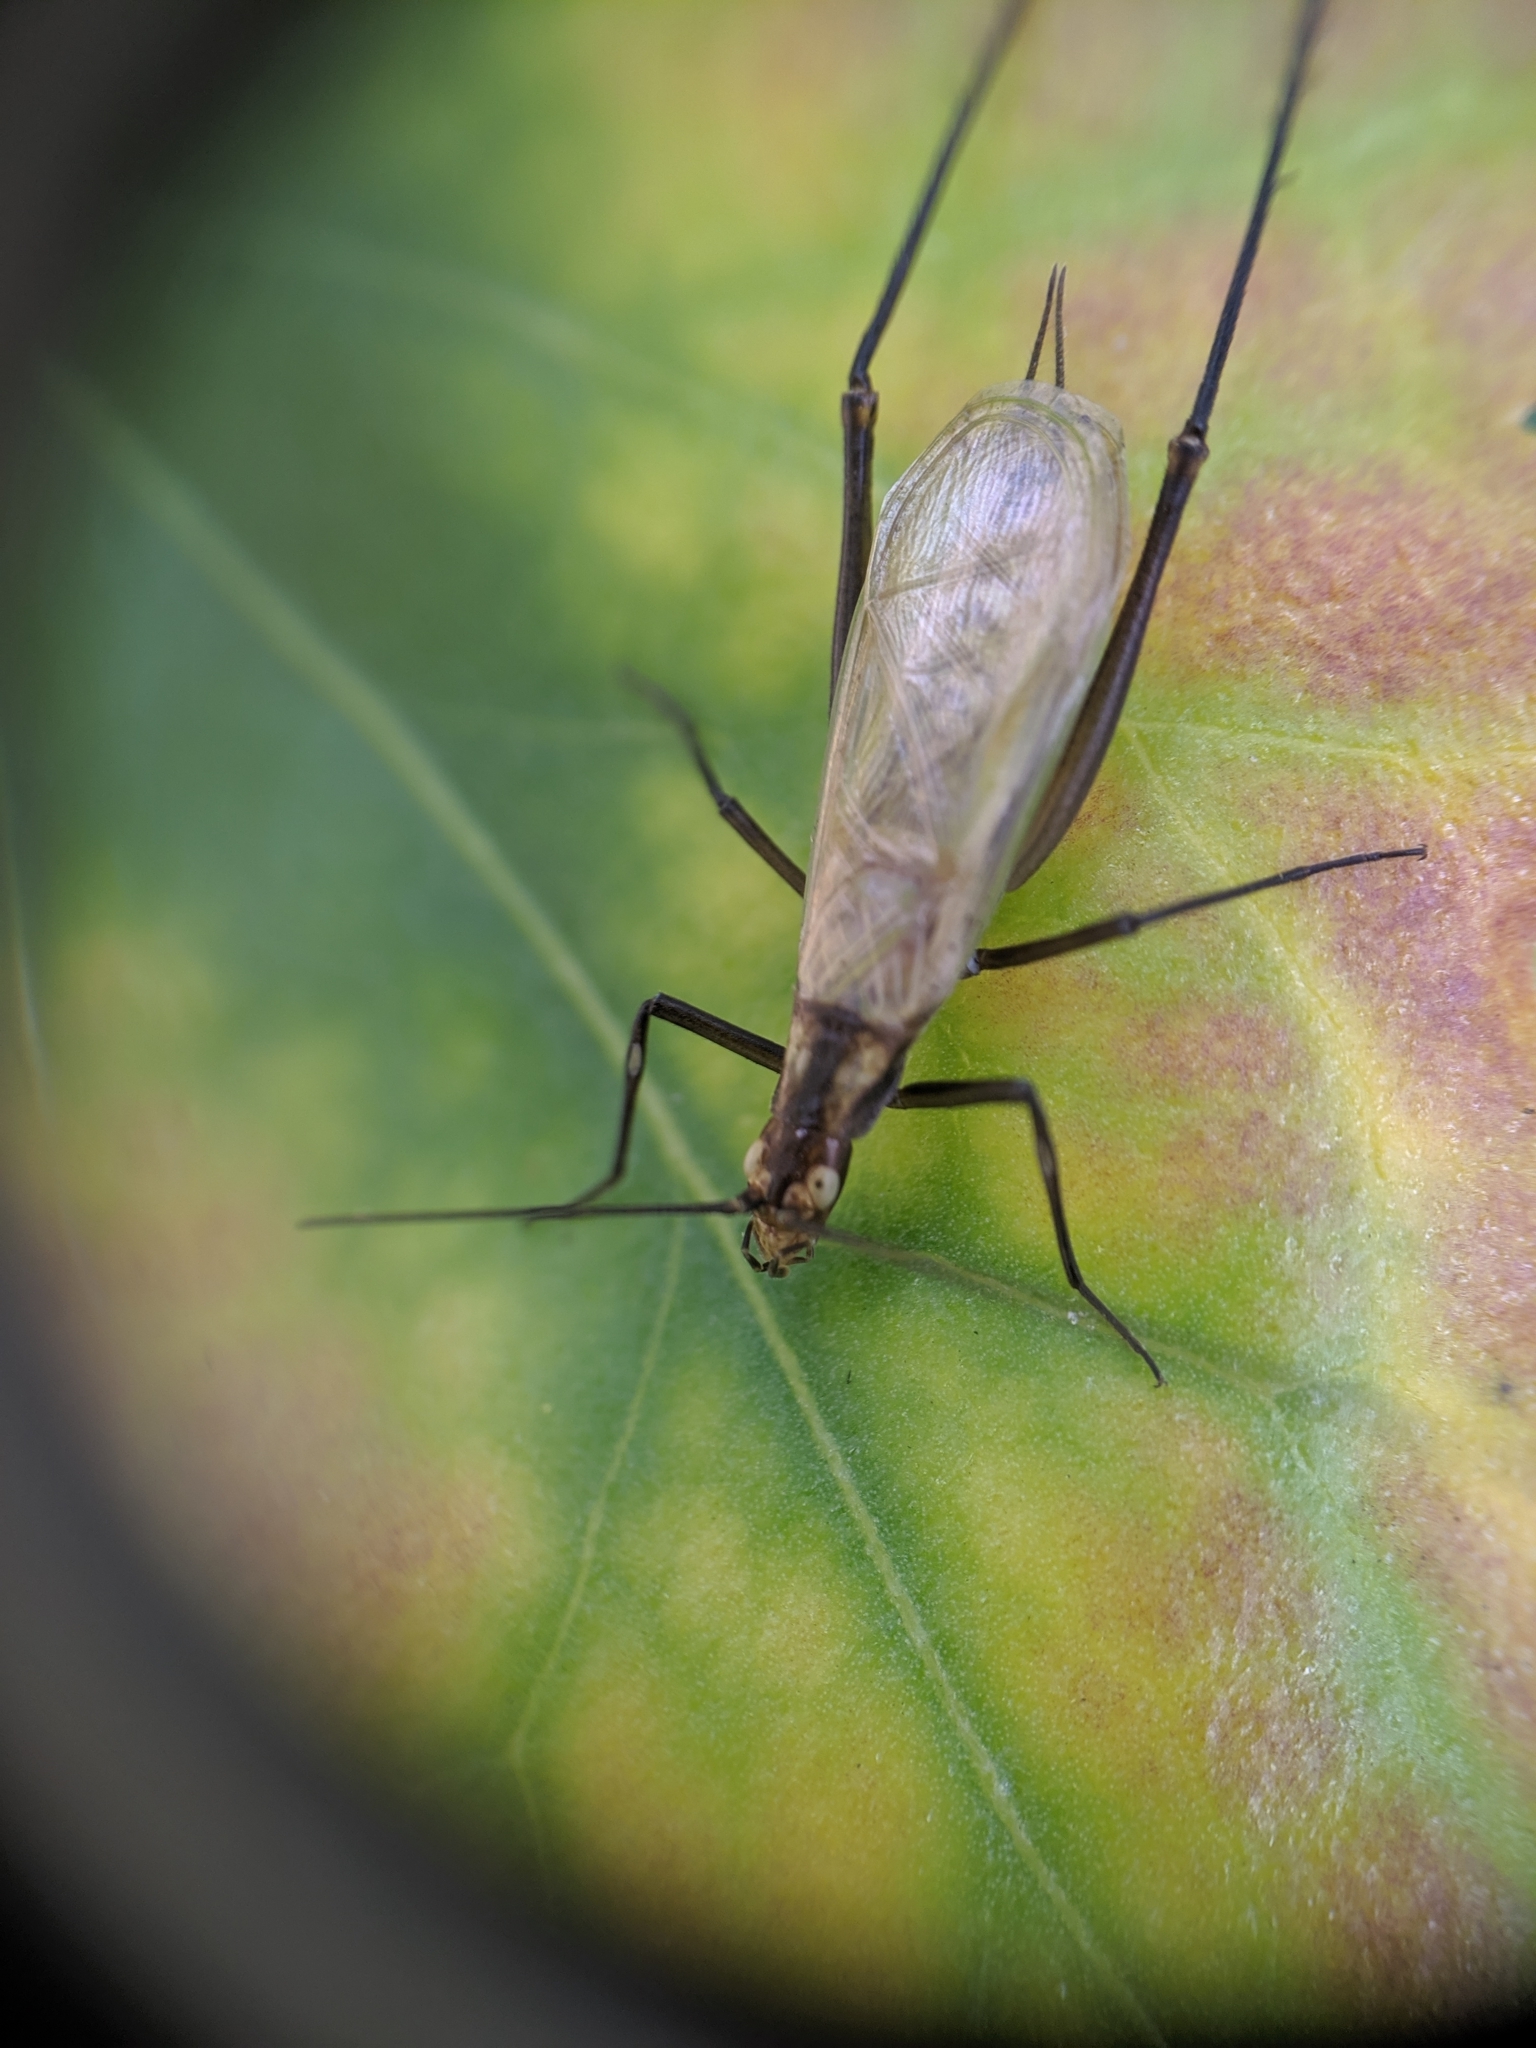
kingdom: Animalia
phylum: Arthropoda
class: Insecta
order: Orthoptera
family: Gryllidae
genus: Oecanthus
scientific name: Oecanthus nigricornis
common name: Black-horned tree cricket
